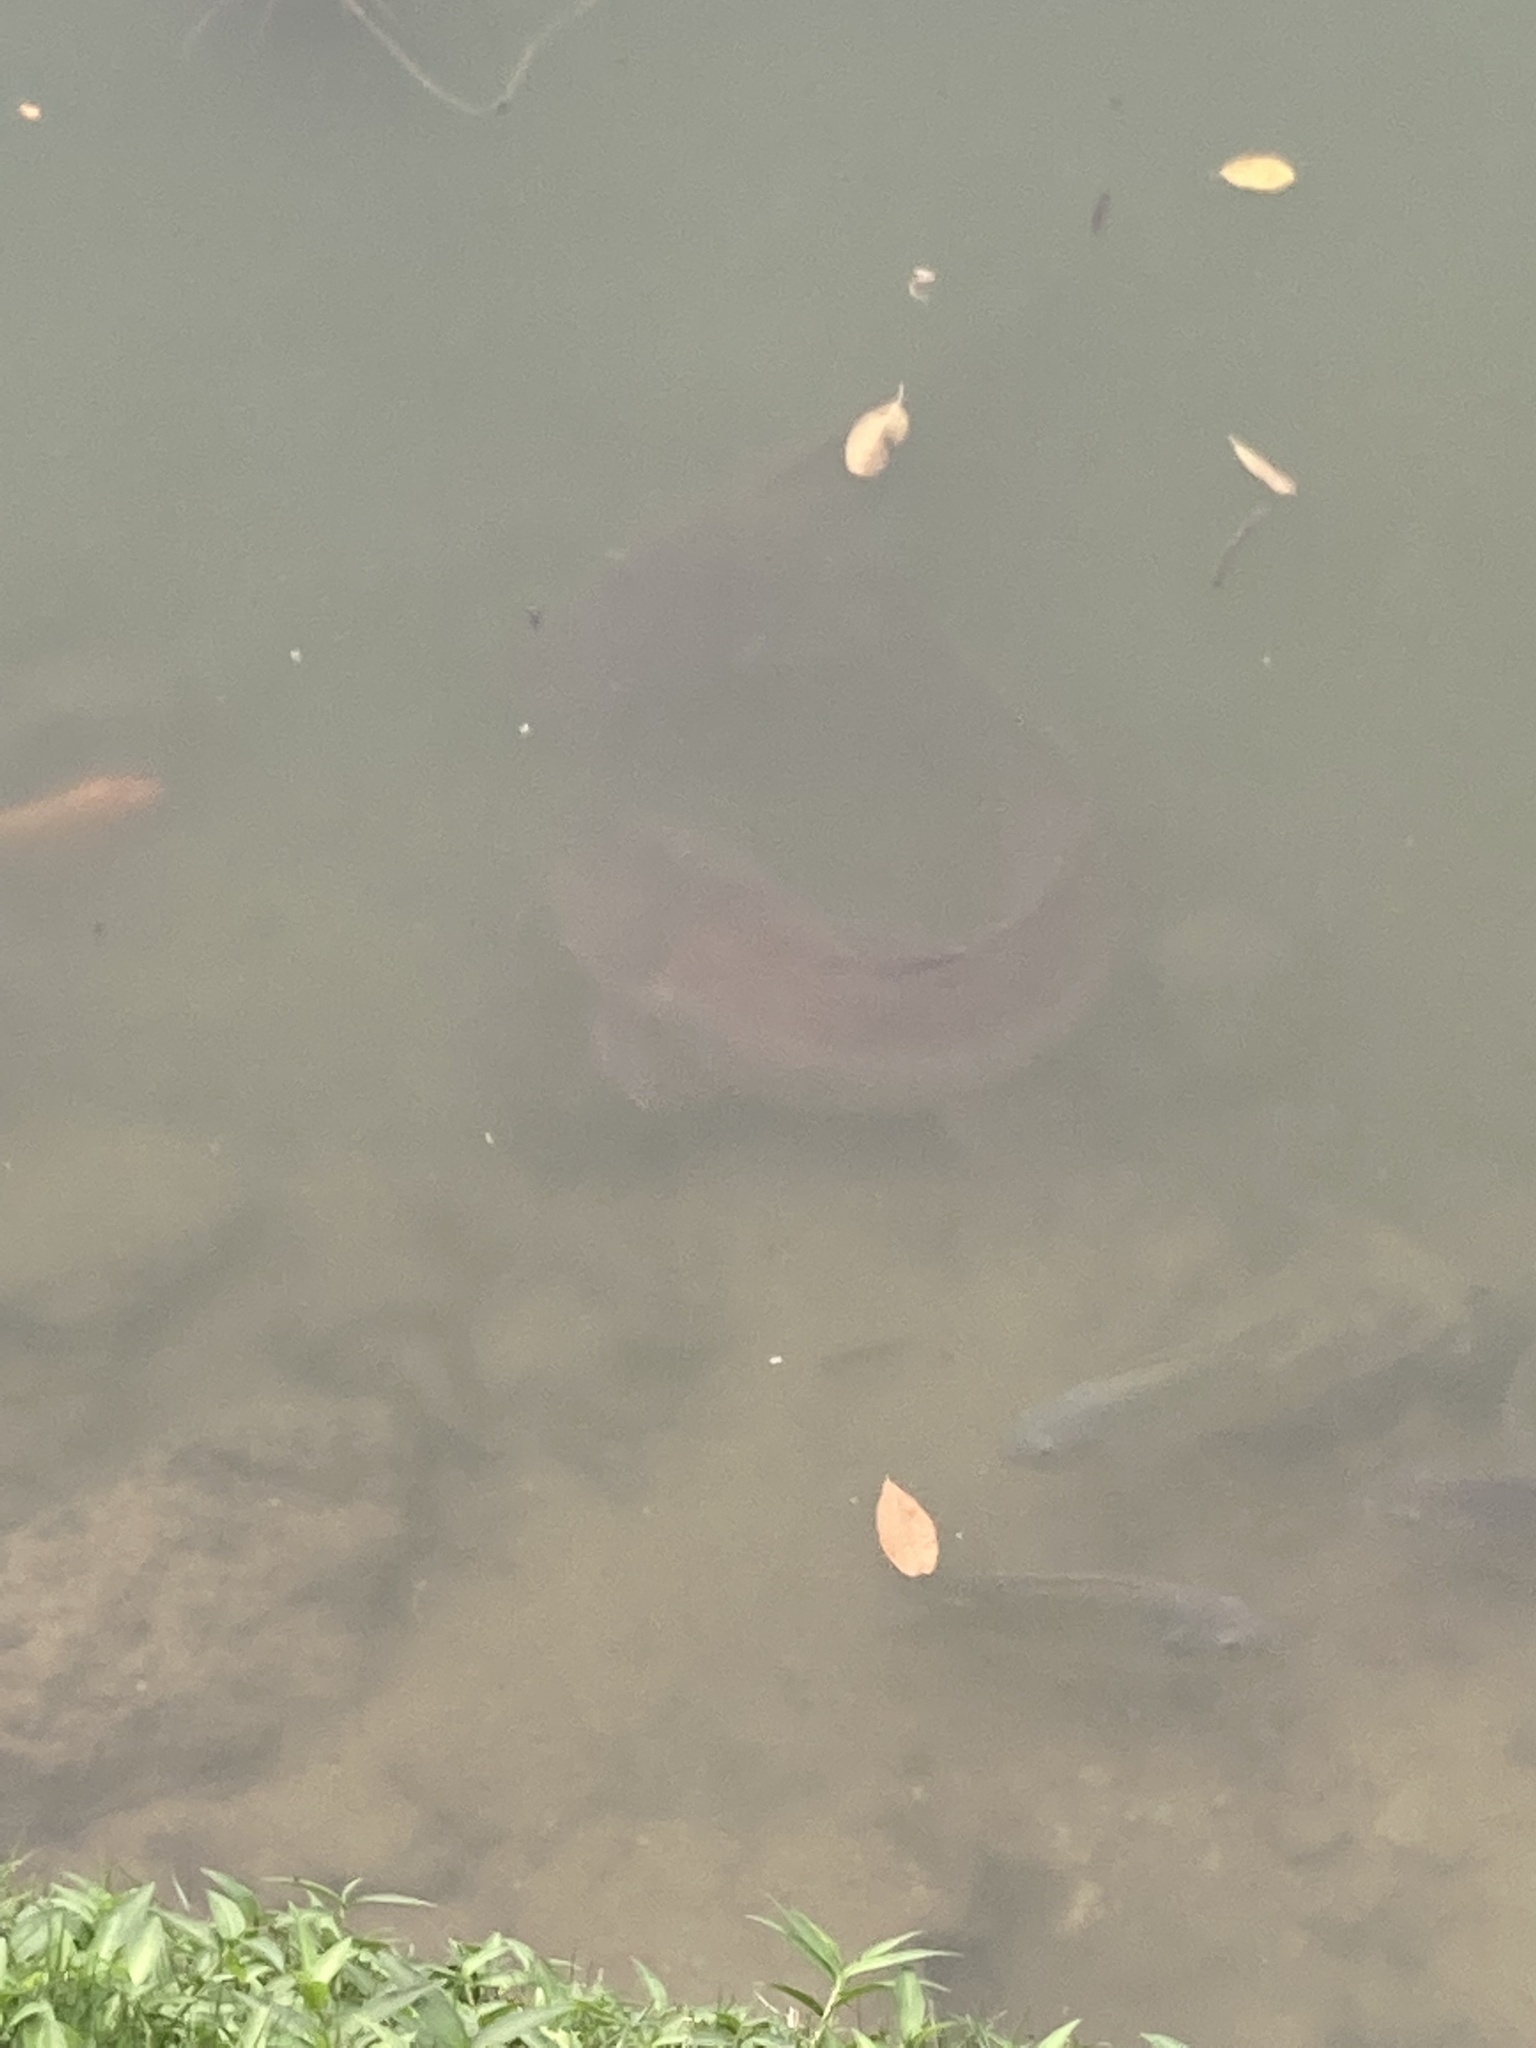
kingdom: Animalia
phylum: Chordata
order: Siluriformes
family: Clariidae
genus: Clarias
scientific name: Clarias gariepinus
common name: African catfish
